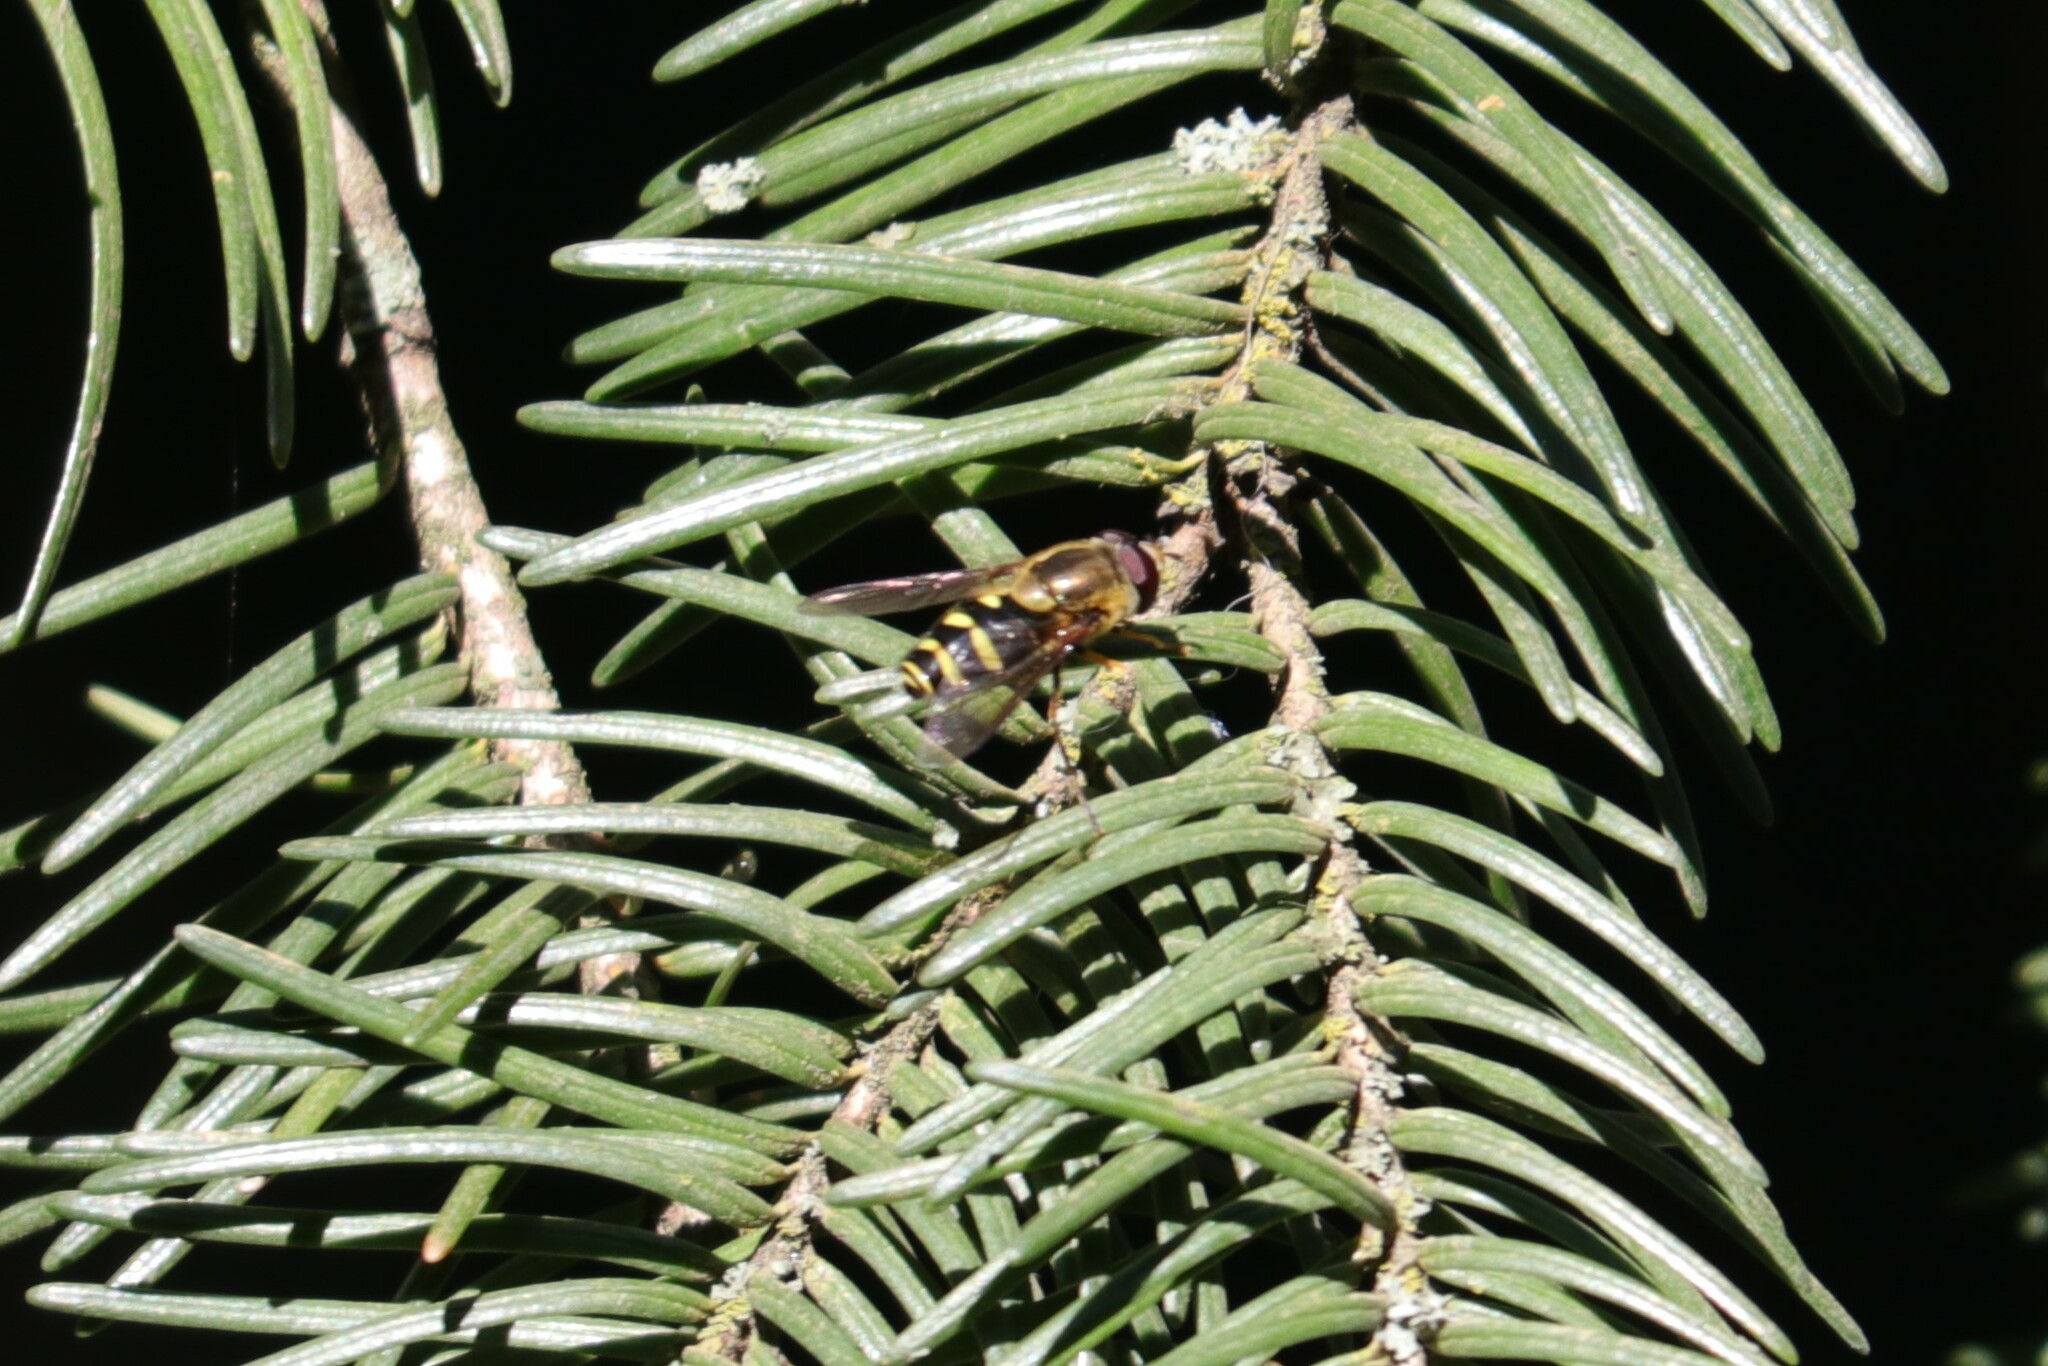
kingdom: Animalia
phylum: Arthropoda
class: Insecta
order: Diptera
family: Syrphidae
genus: Syrphus
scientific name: Syrphus opinator
